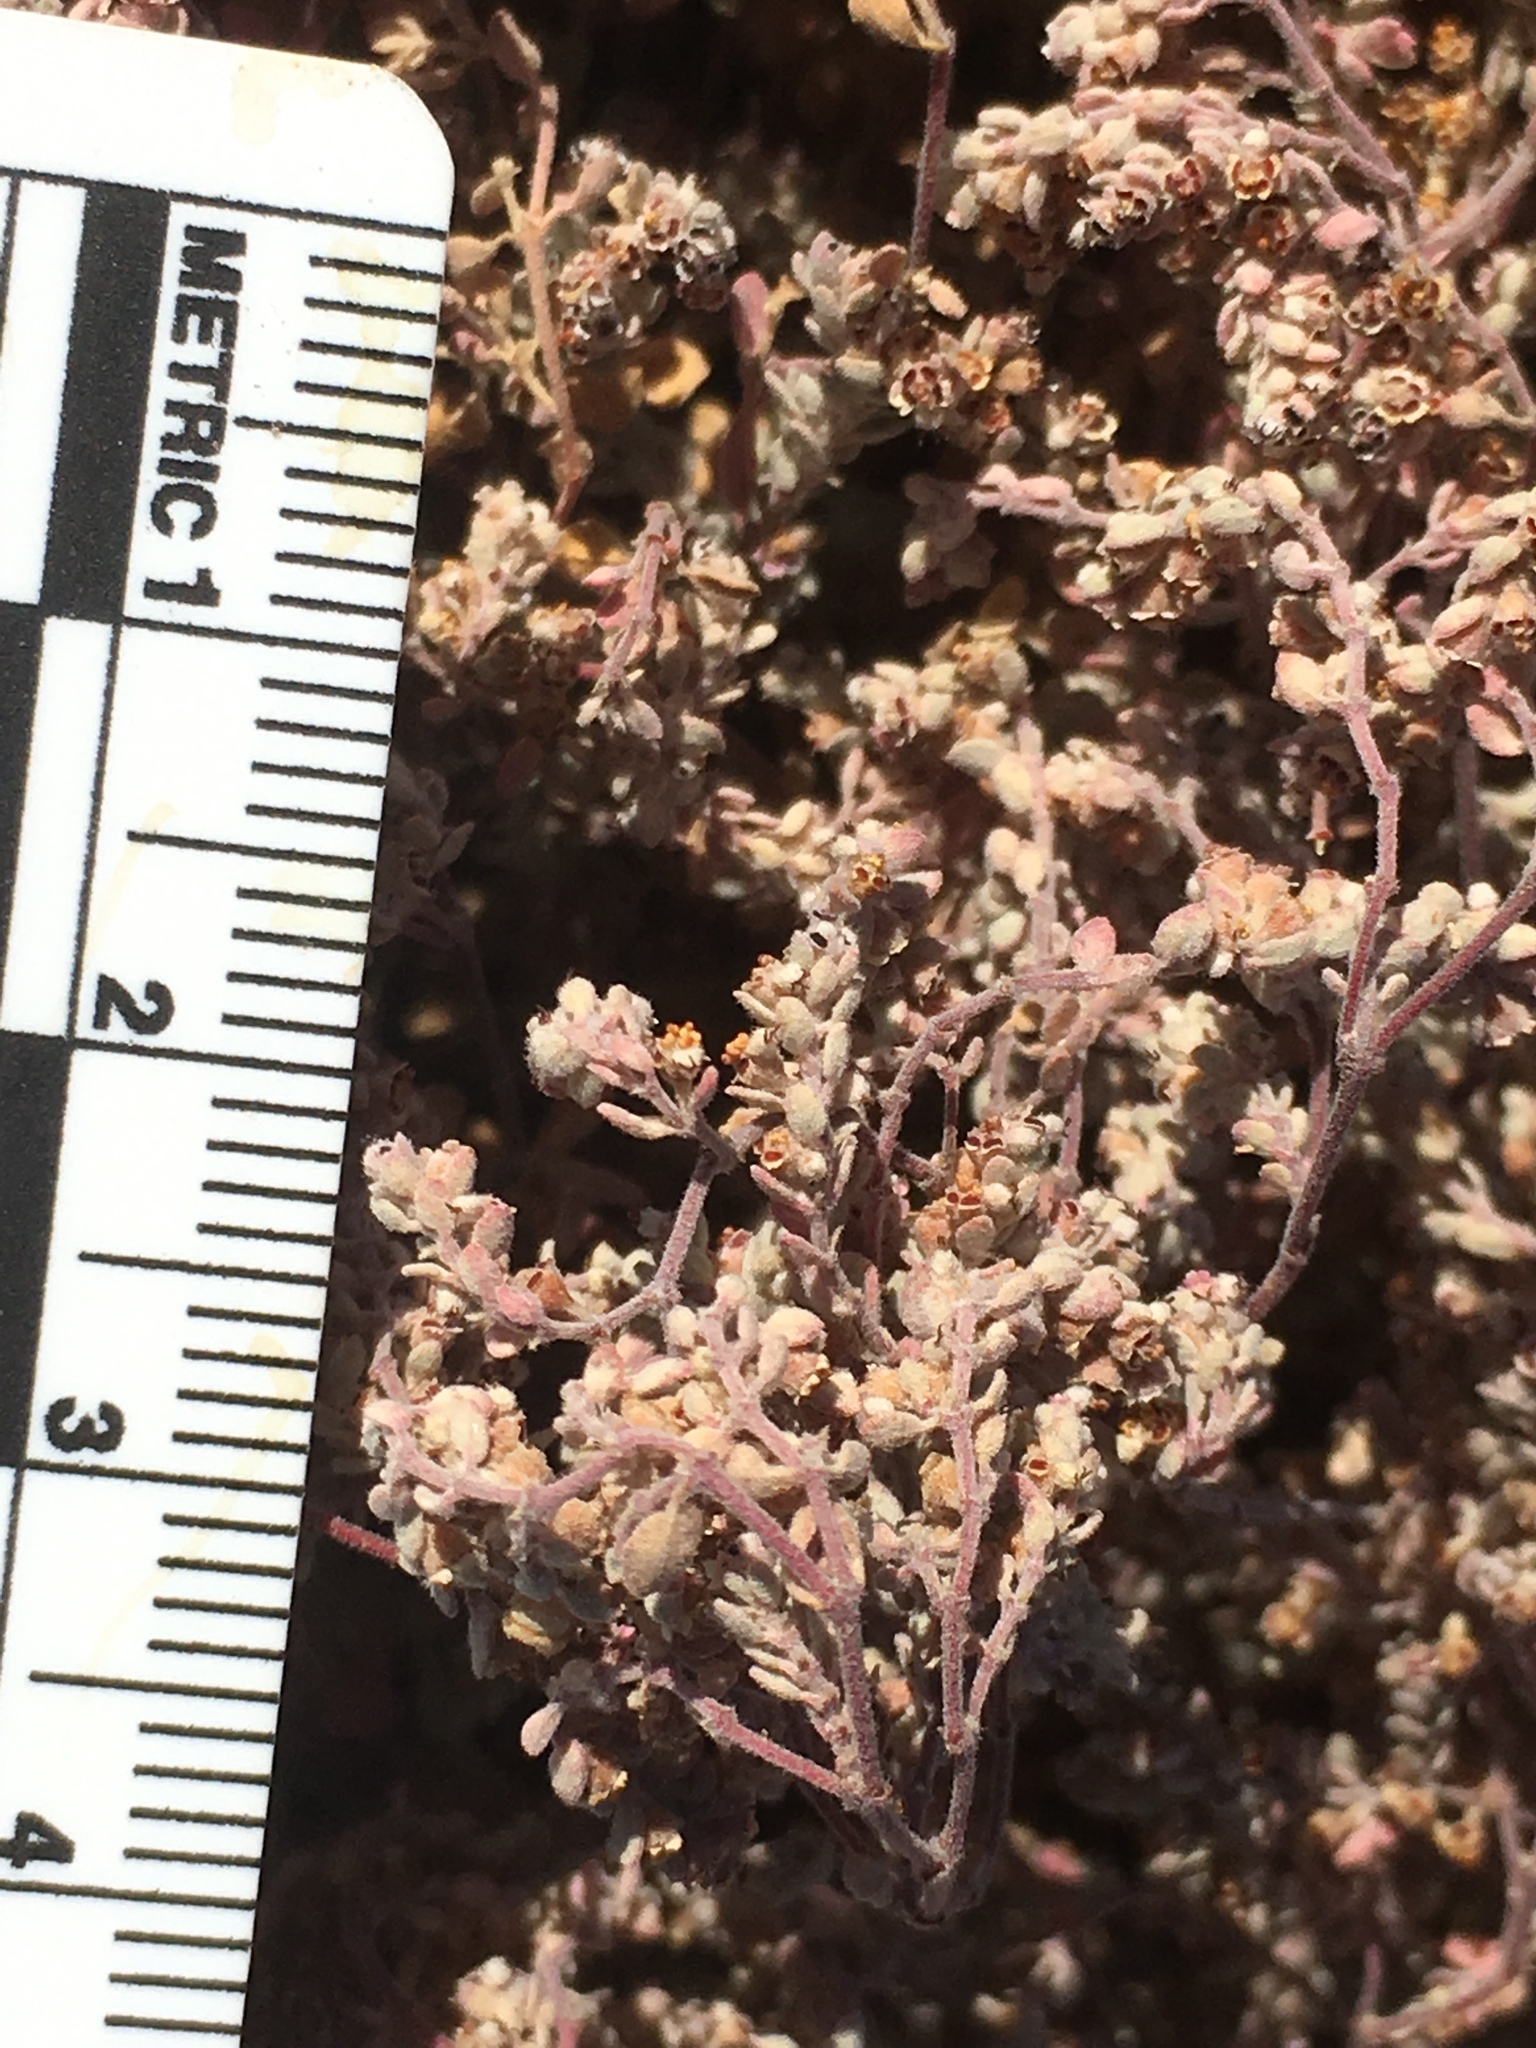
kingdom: Plantae
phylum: Tracheophyta
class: Magnoliopsida
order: Malpighiales
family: Euphorbiaceae
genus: Euphorbia
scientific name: Euphorbia melanadenia
